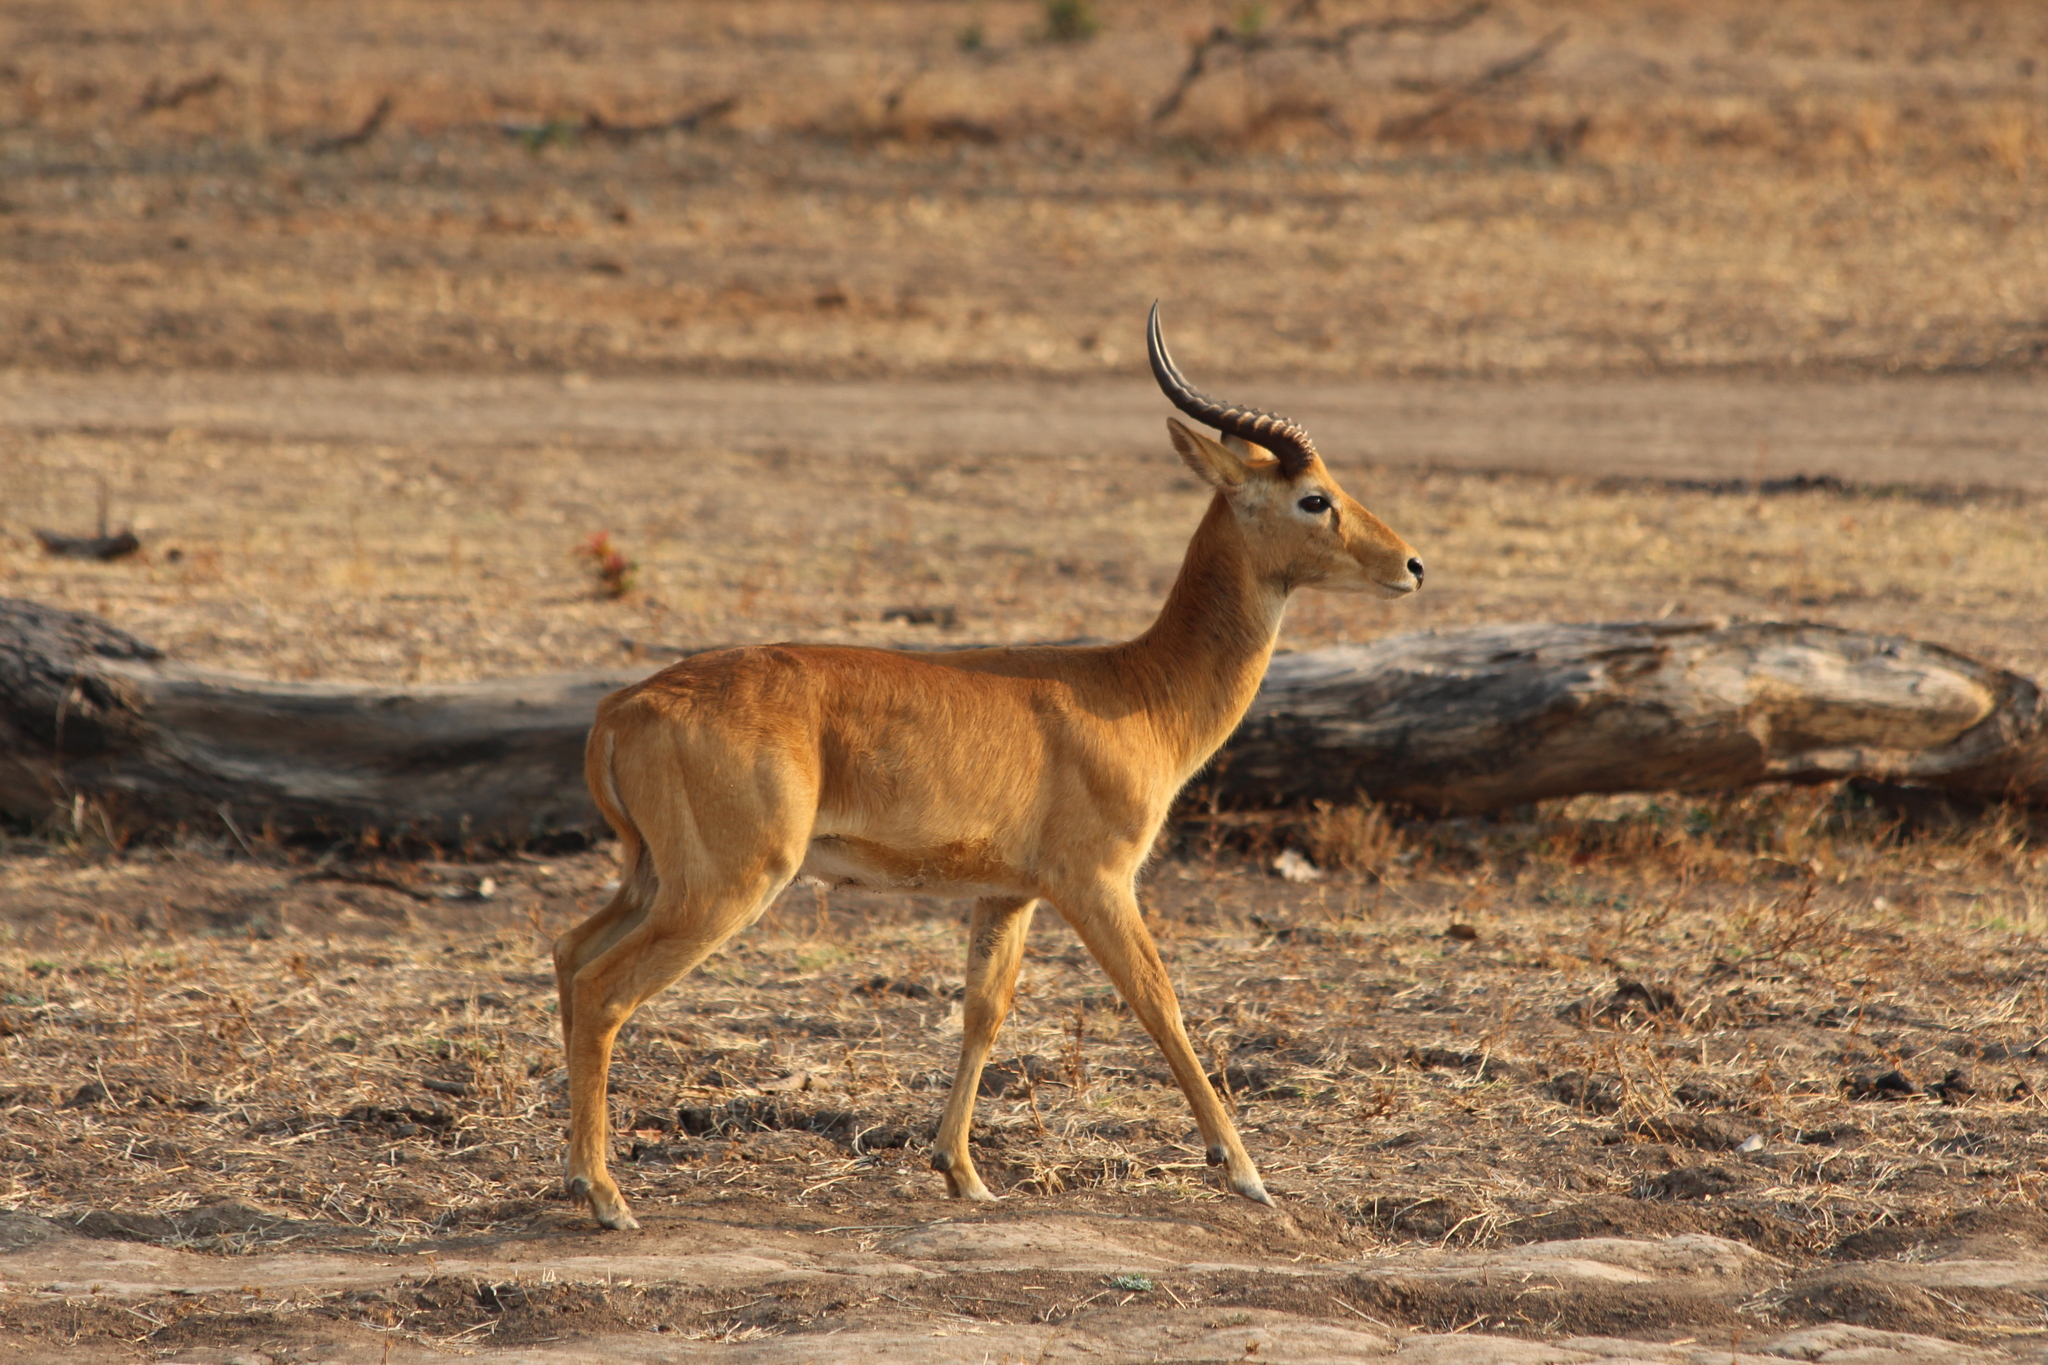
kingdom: Animalia
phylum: Chordata
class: Mammalia
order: Artiodactyla
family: Bovidae
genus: Kobus
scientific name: Kobus vardonii
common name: Puku
